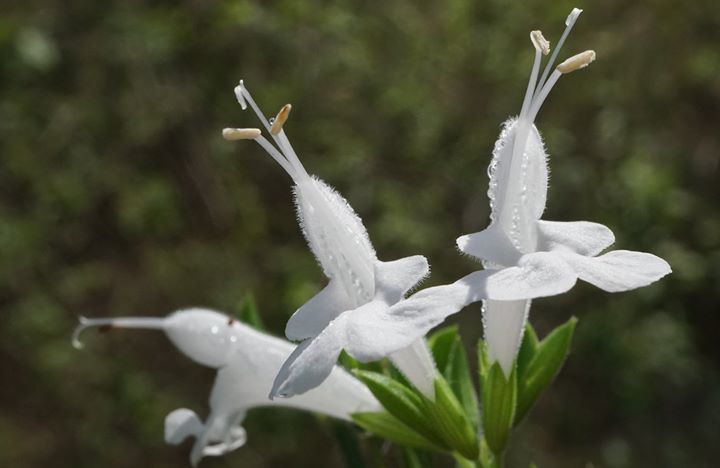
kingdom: Plantae
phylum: Tracheophyta
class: Magnoliopsida
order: Lamiales
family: Lamiaceae
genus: Salvia
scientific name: Salvia coccinea
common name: Blood sage
